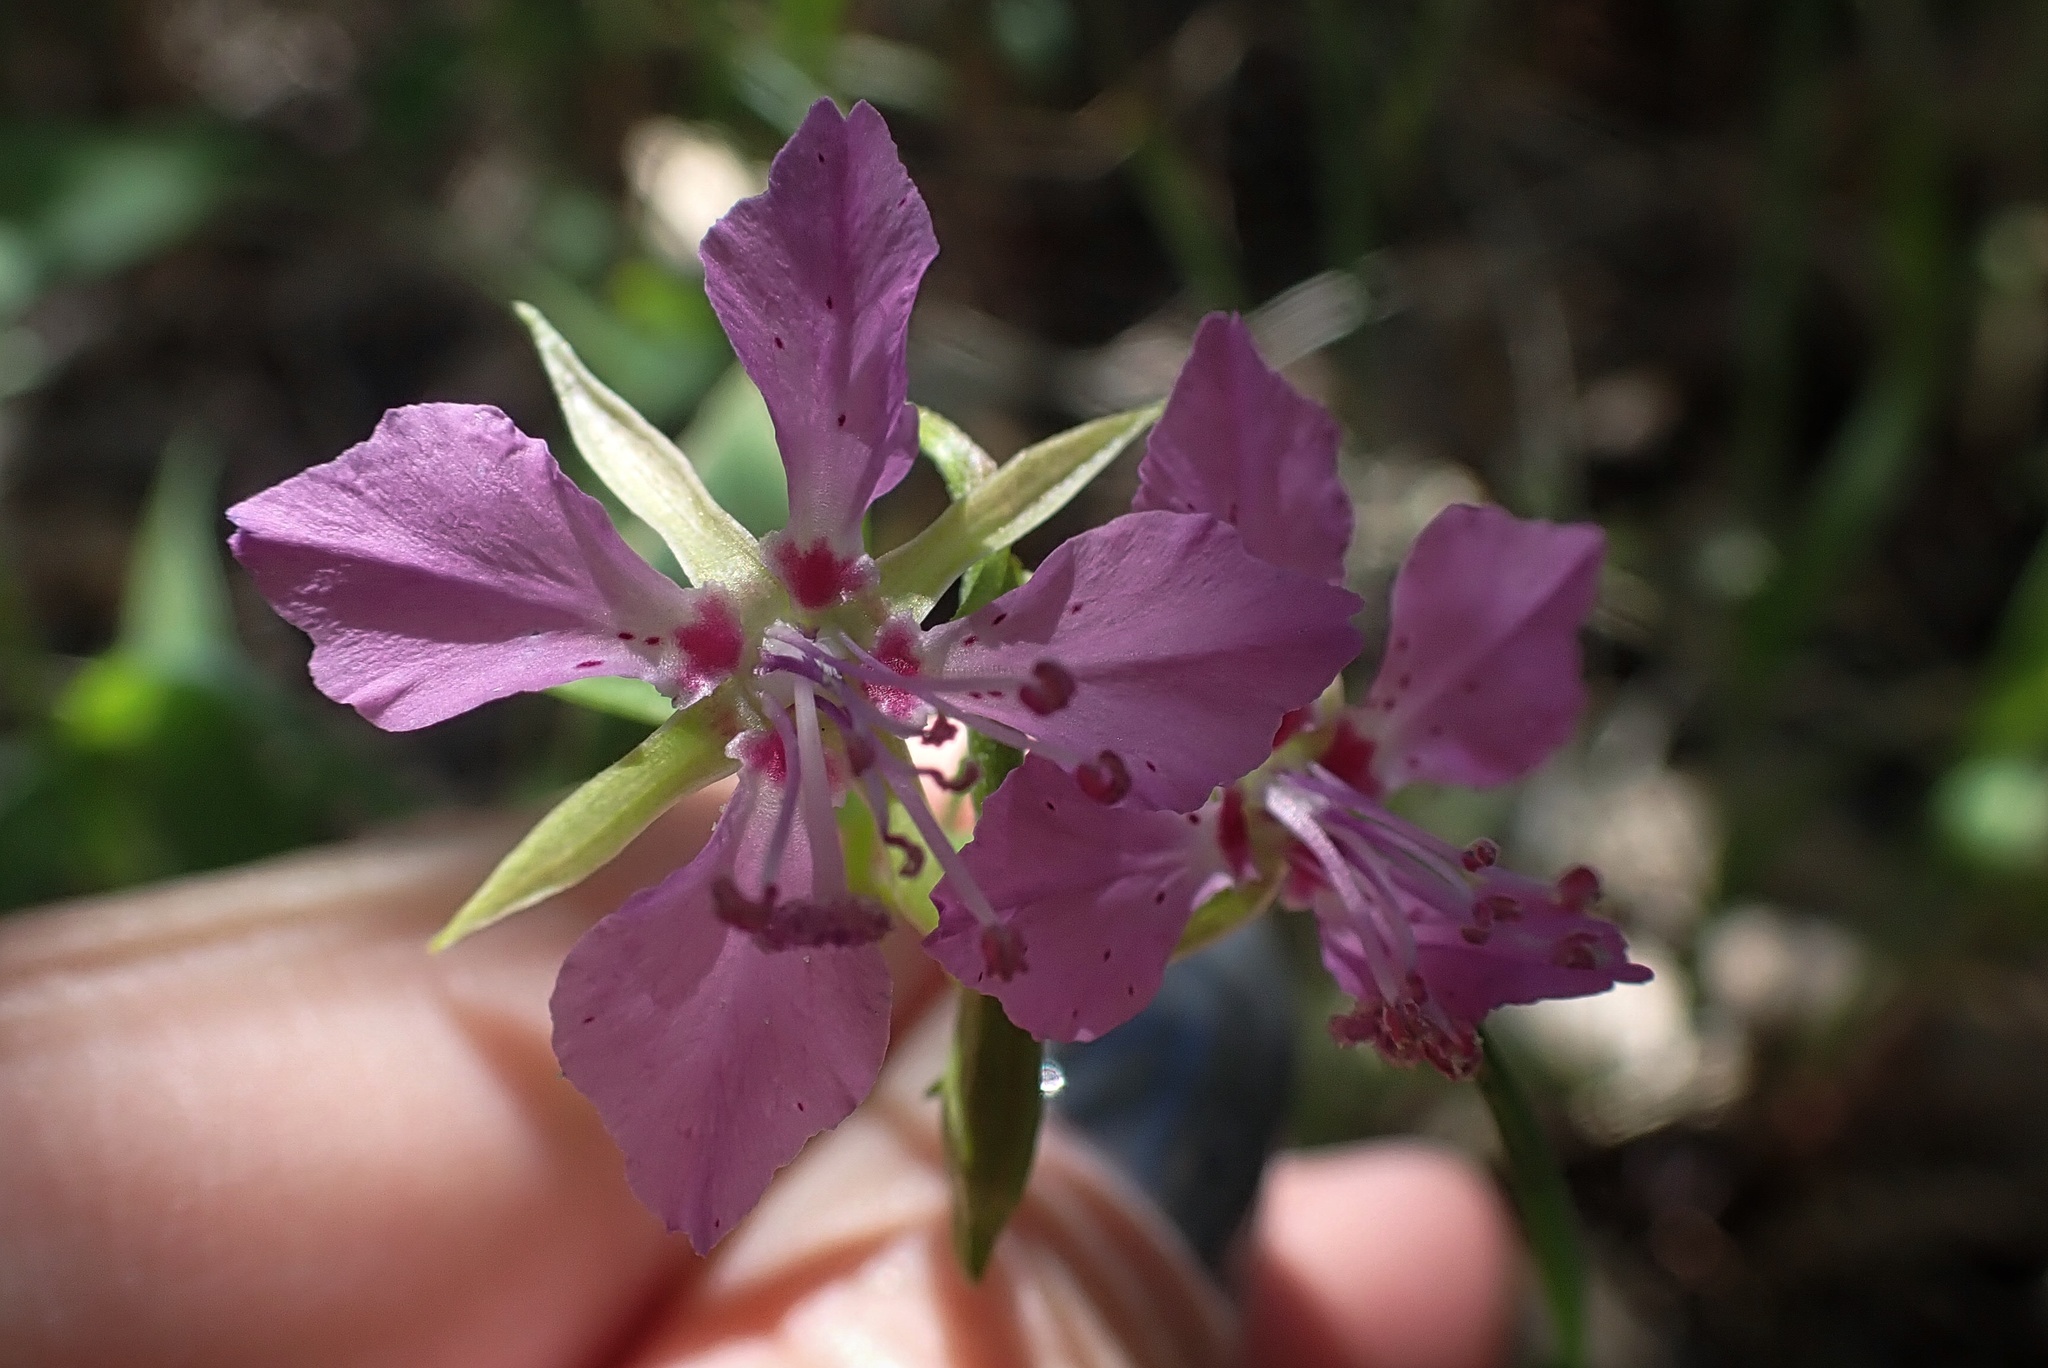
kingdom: Plantae
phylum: Tracheophyta
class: Magnoliopsida
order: Myrtales
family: Onagraceae
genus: Clarkia
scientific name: Clarkia rhomboidea
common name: Broadleaf clarkia
